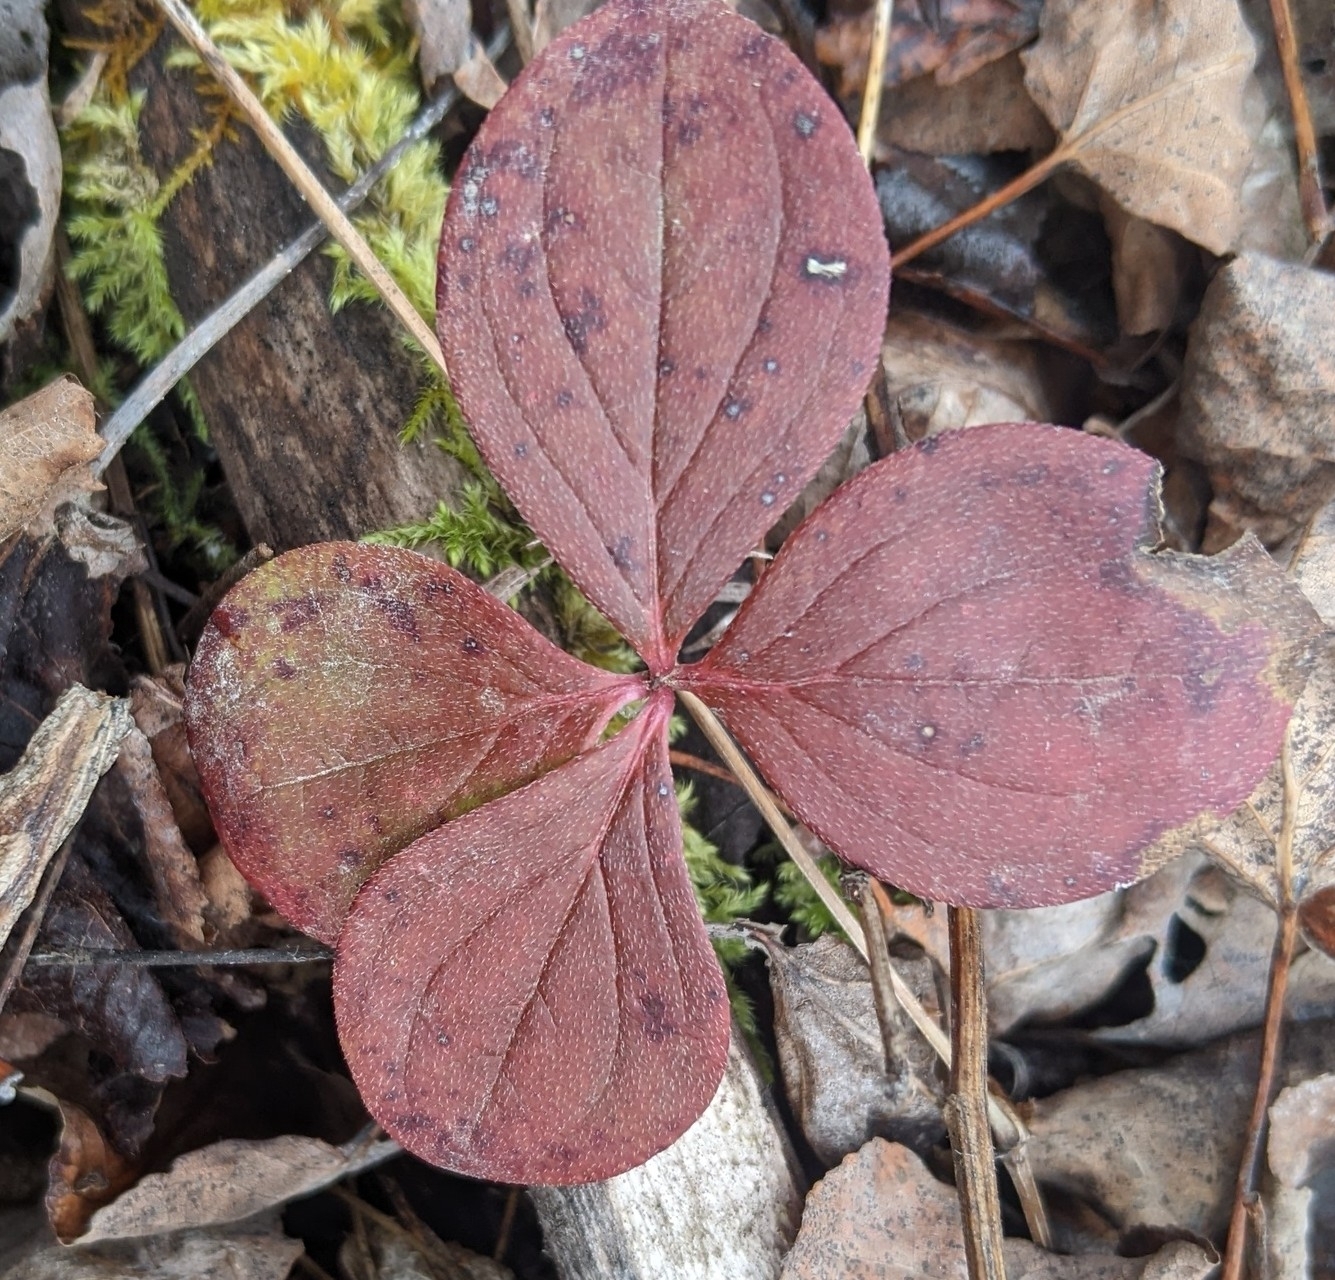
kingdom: Plantae
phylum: Tracheophyta
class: Magnoliopsida
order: Cornales
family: Cornaceae
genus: Cornus
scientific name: Cornus canadensis
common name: Creeping dogwood
